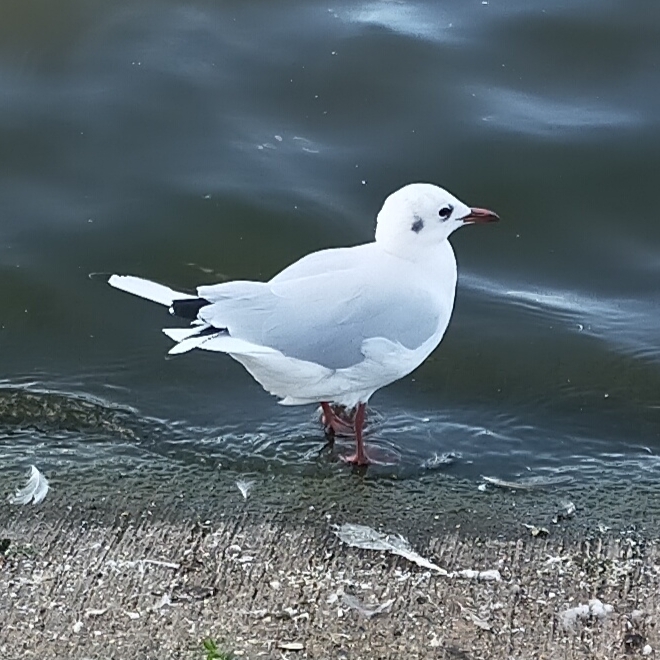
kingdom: Animalia
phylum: Chordata
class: Aves
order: Charadriiformes
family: Laridae
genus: Chroicocephalus
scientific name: Chroicocephalus ridibundus
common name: Black-headed gull
